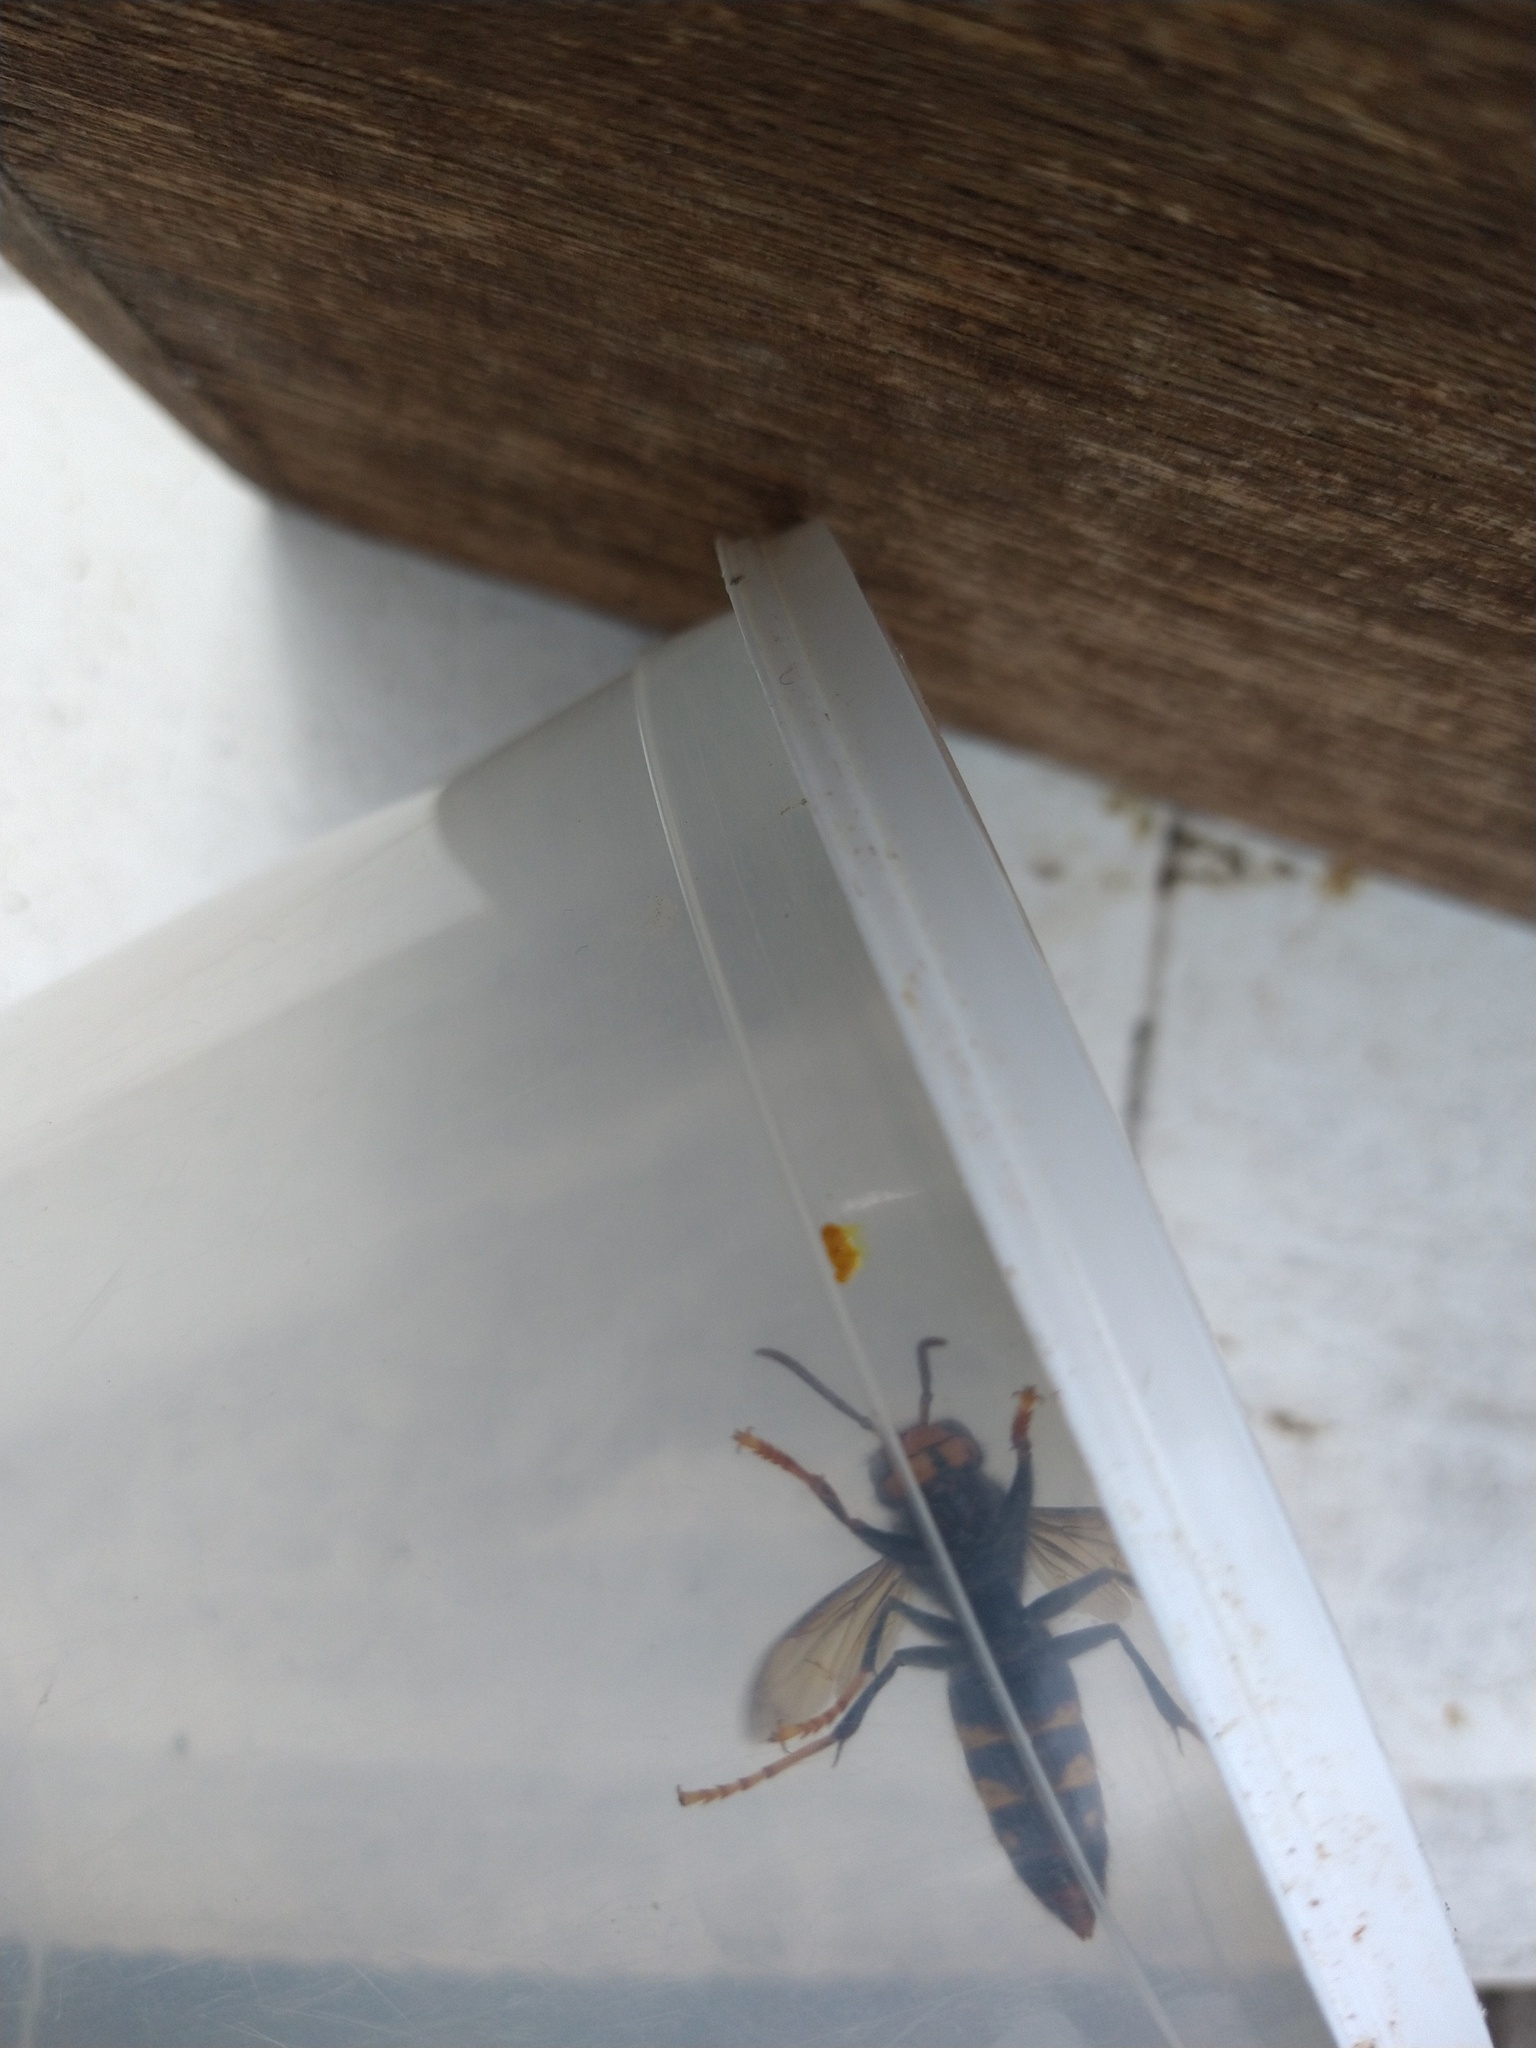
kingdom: Animalia
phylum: Arthropoda
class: Insecta
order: Hymenoptera
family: Vespidae
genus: Vespa
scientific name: Vespa velutina
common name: Asian hornet
